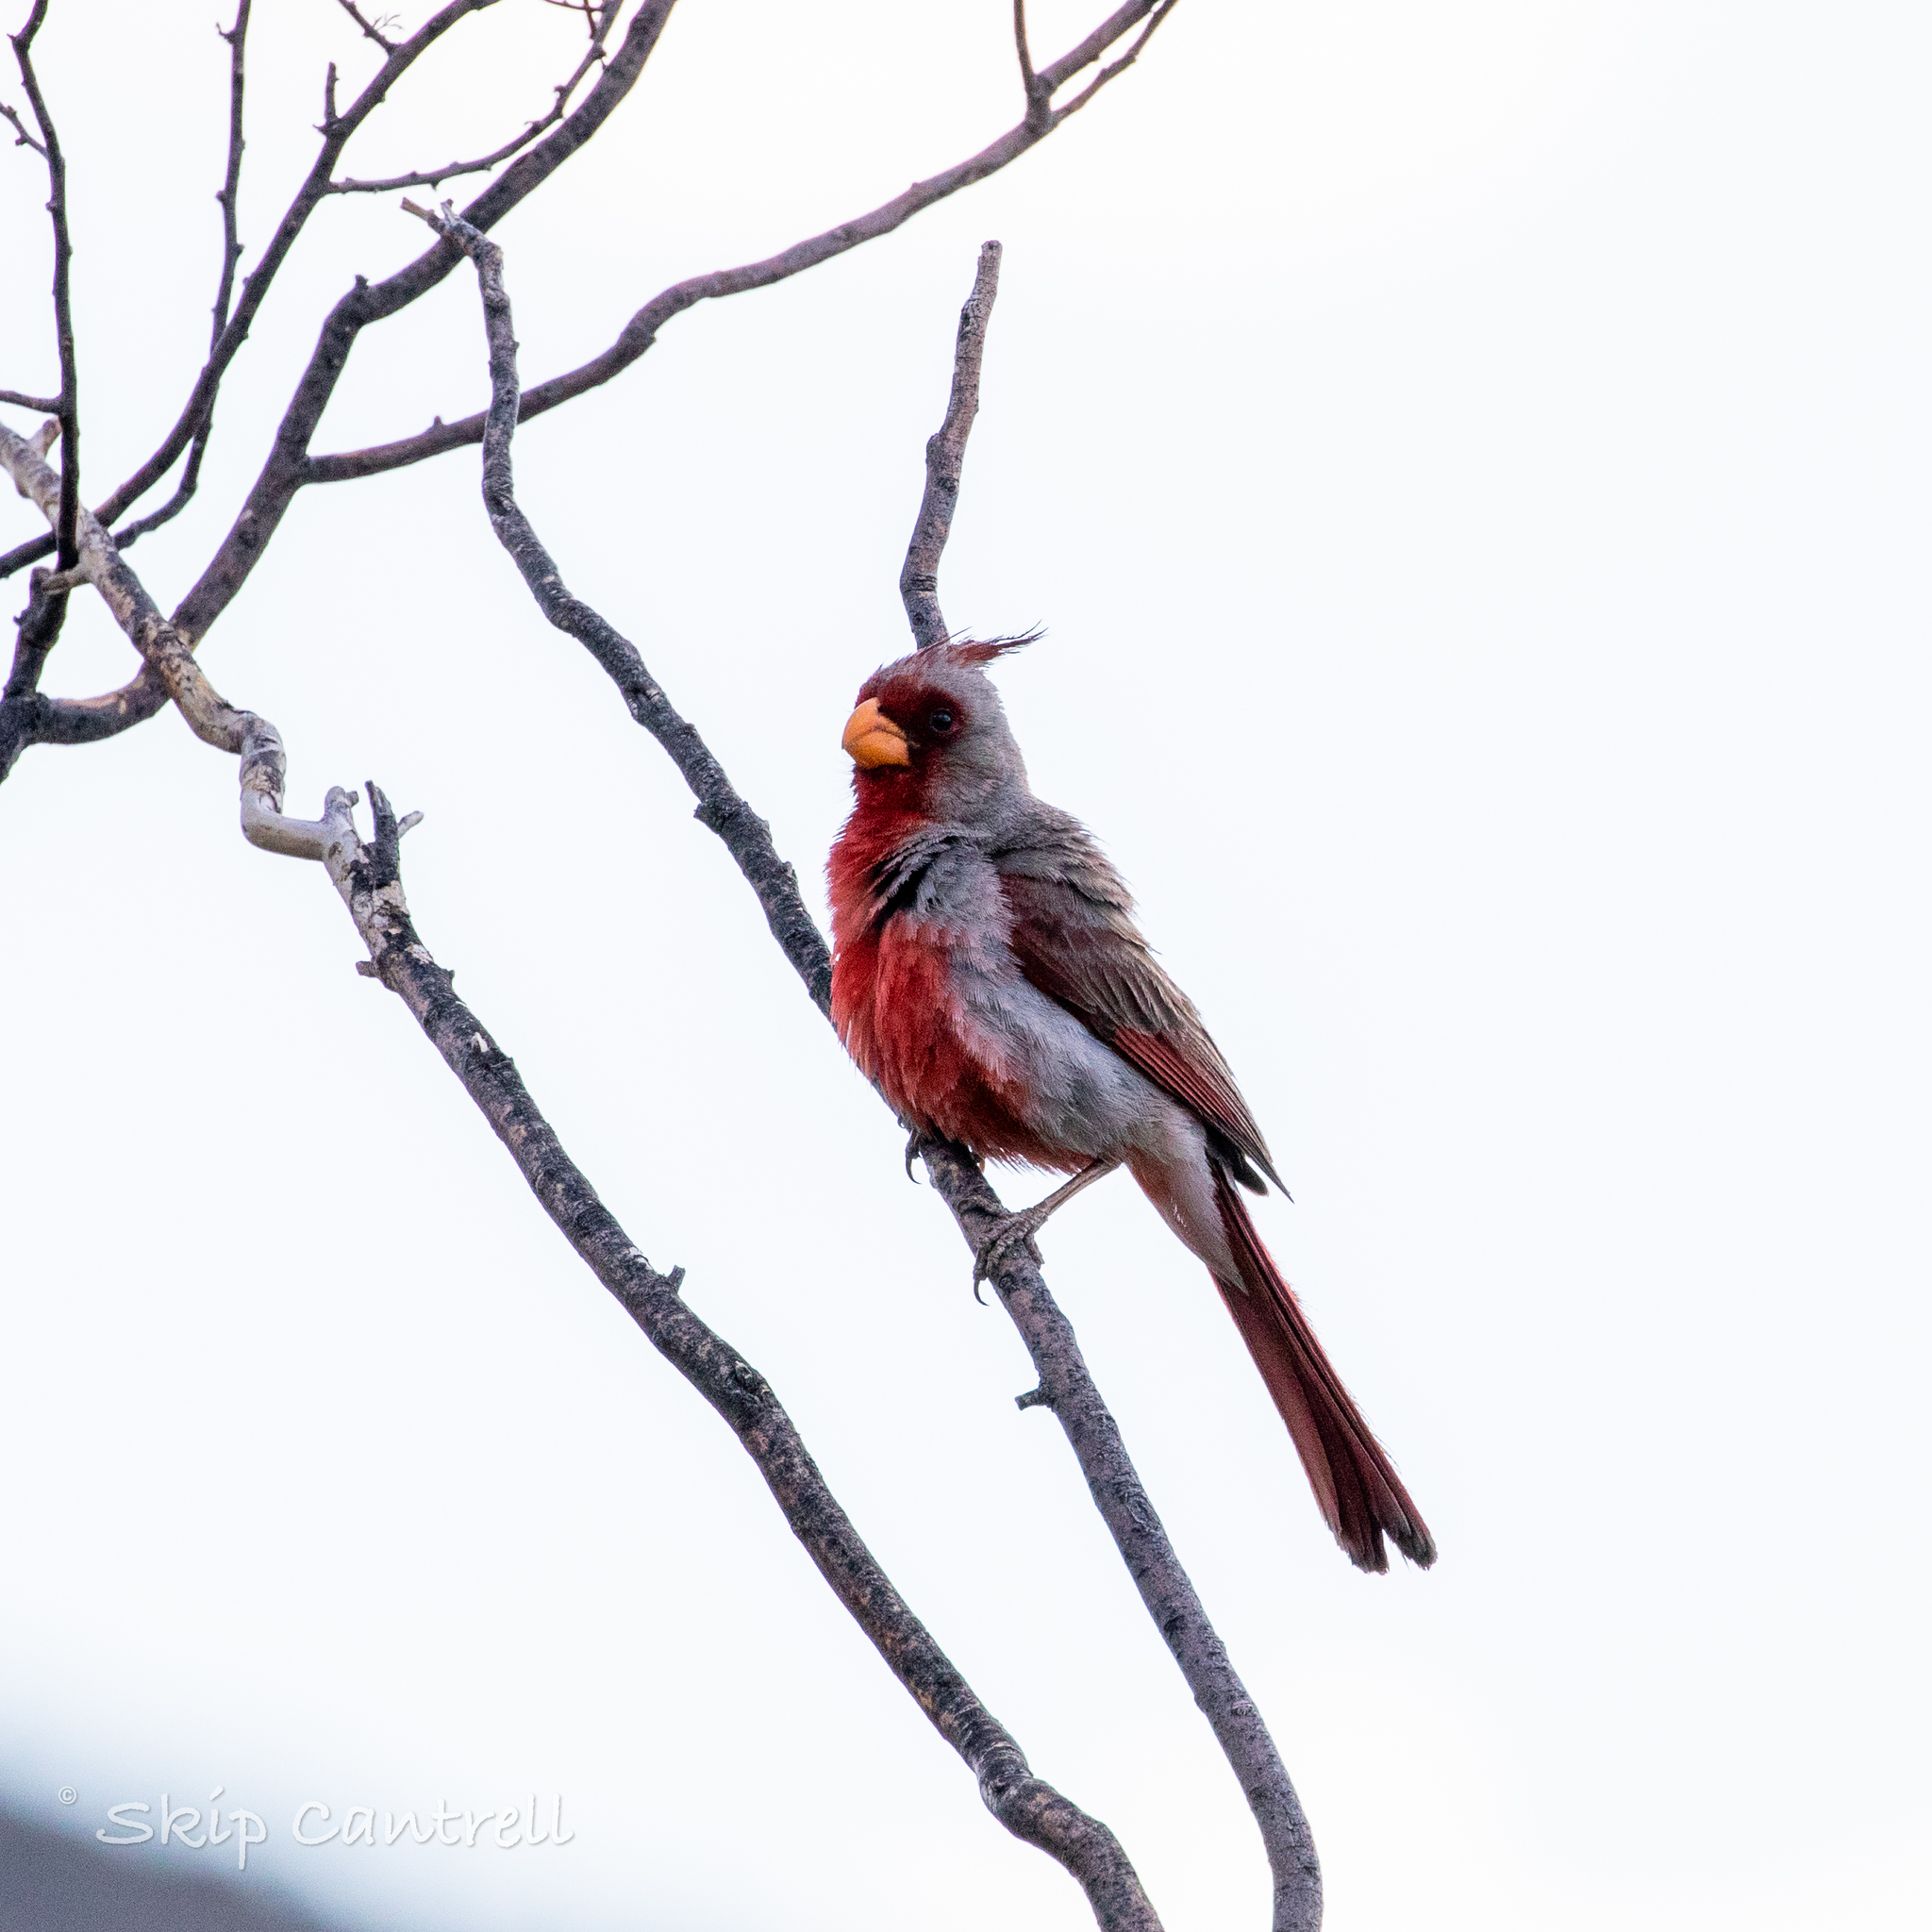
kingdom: Animalia
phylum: Chordata
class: Aves
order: Passeriformes
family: Cardinalidae
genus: Cardinalis
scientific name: Cardinalis sinuatus
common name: Pyrrhuloxia
